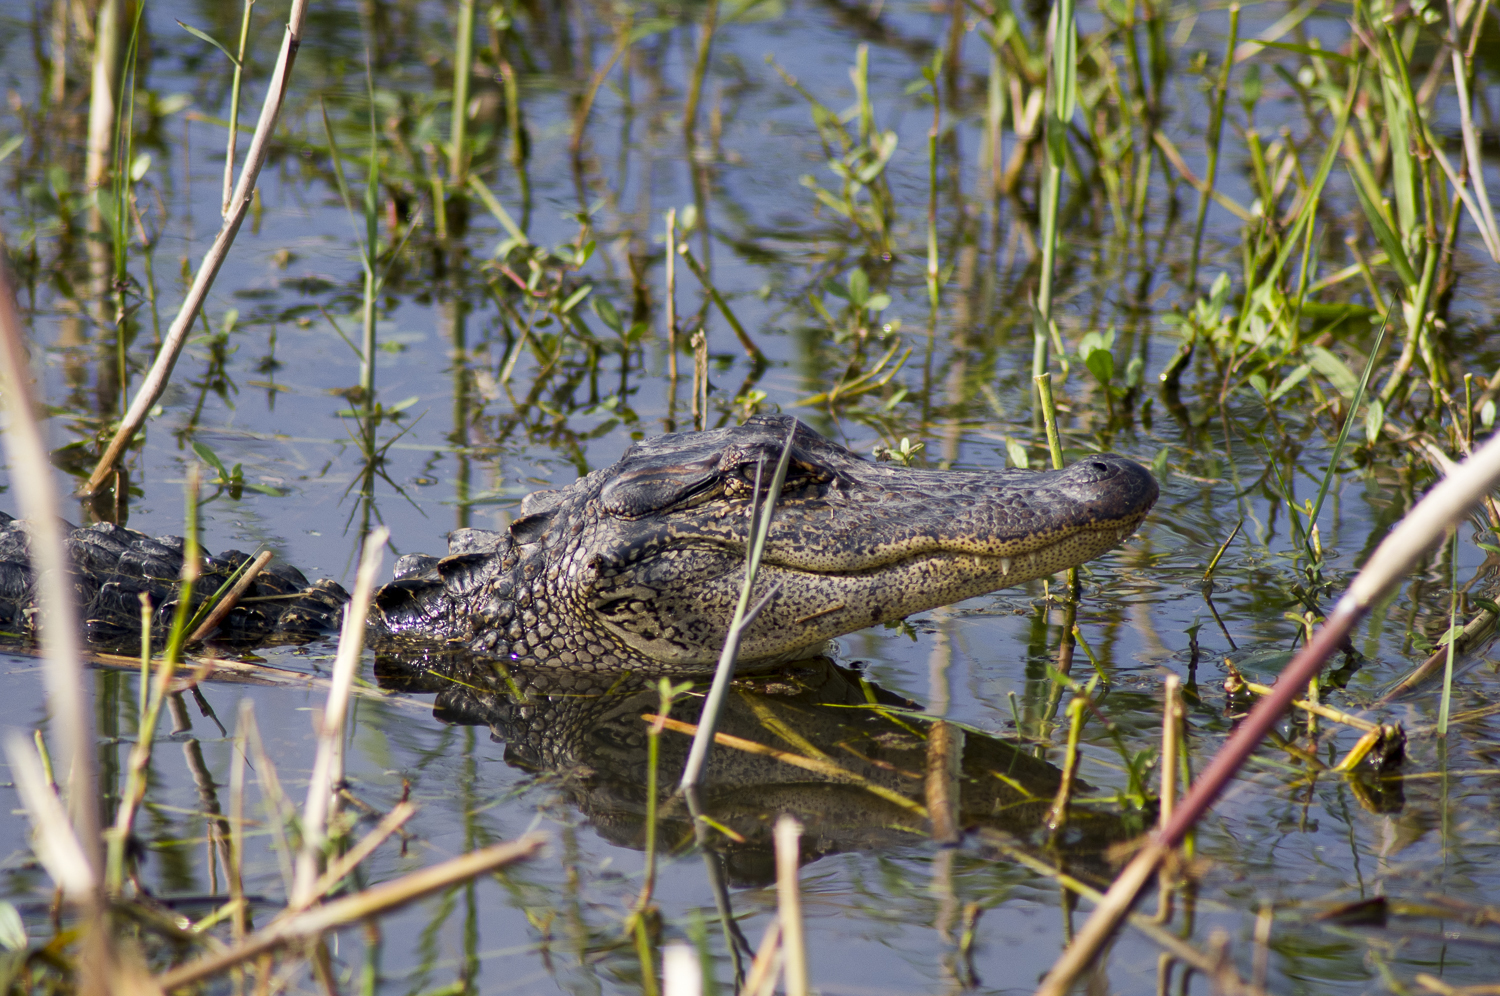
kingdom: Animalia
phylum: Chordata
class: Crocodylia
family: Alligatoridae
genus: Alligator
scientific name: Alligator mississippiensis
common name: American alligator
